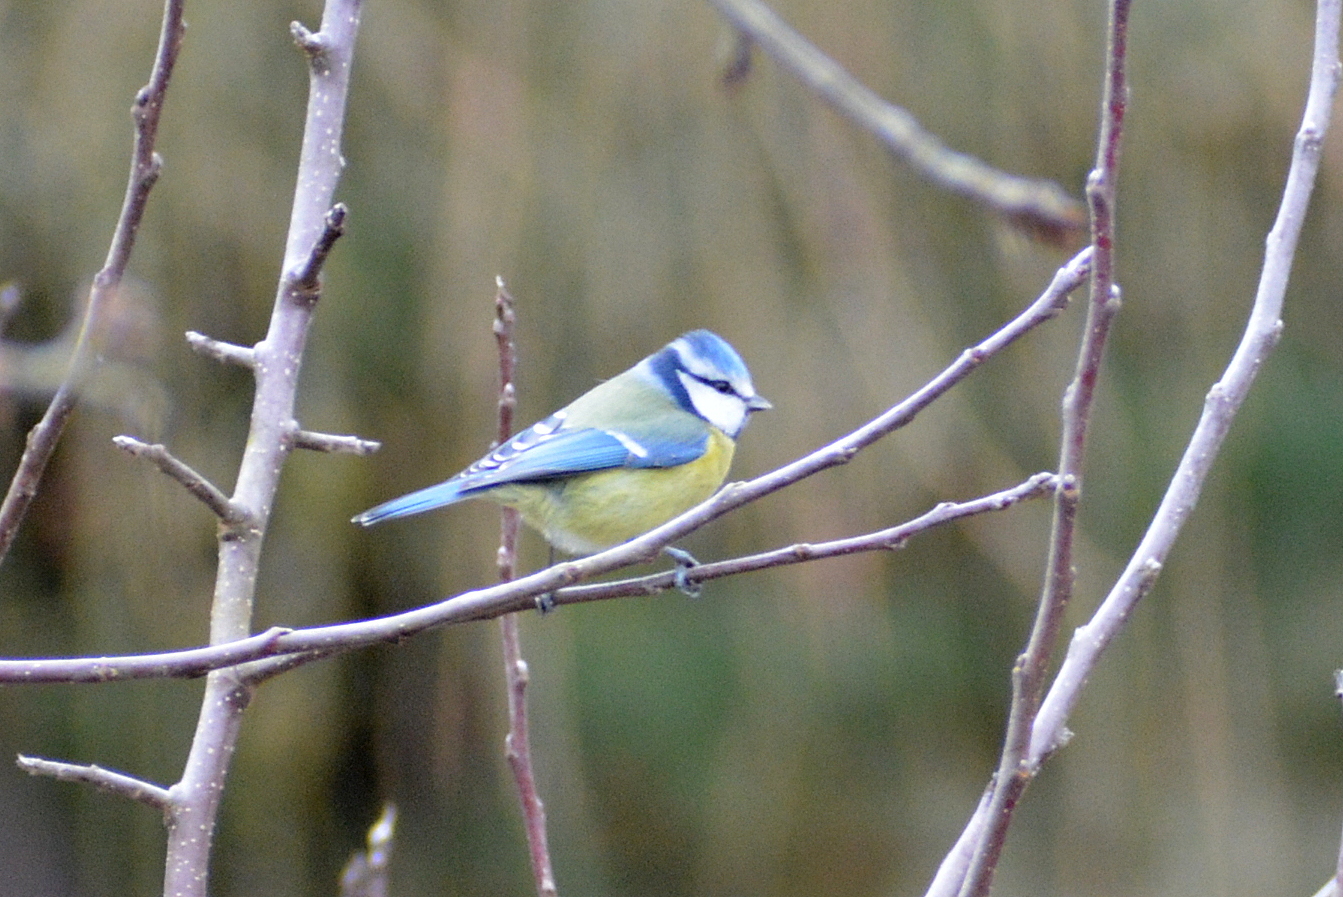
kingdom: Animalia
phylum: Chordata
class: Aves
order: Passeriformes
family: Paridae
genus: Cyanistes
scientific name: Cyanistes caeruleus
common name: Eurasian blue tit
